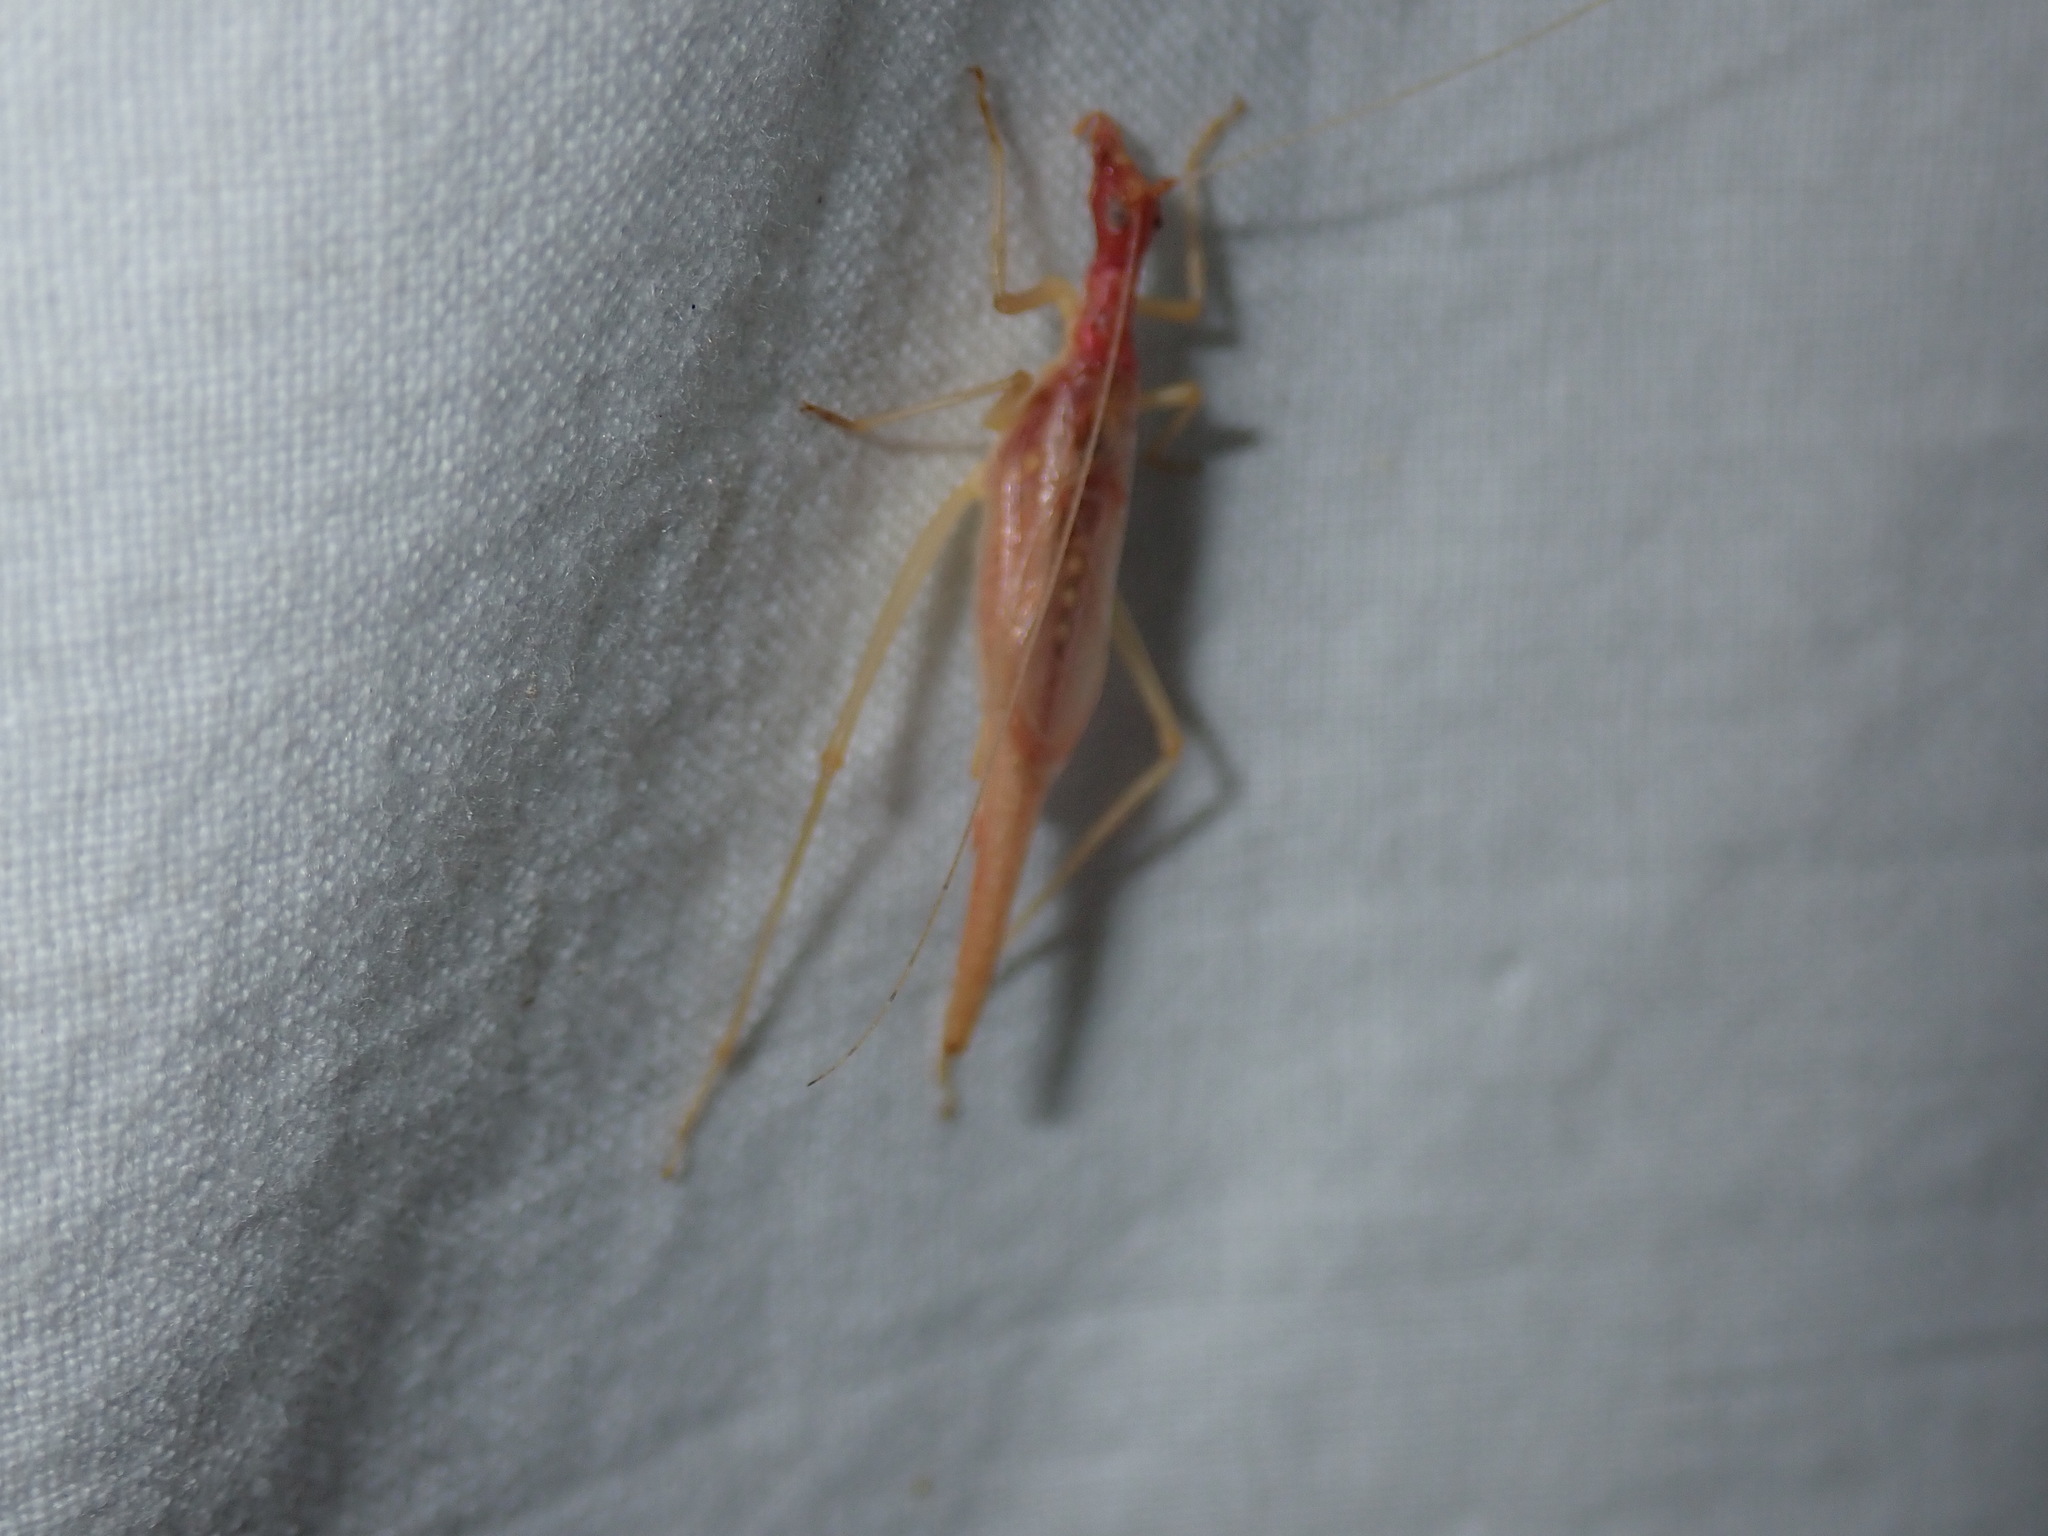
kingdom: Animalia
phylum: Arthropoda
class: Insecta
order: Orthoptera
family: Gryllidae
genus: Neoxabea
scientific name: Neoxabea bipunctata
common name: Two-spotted tree cricket
